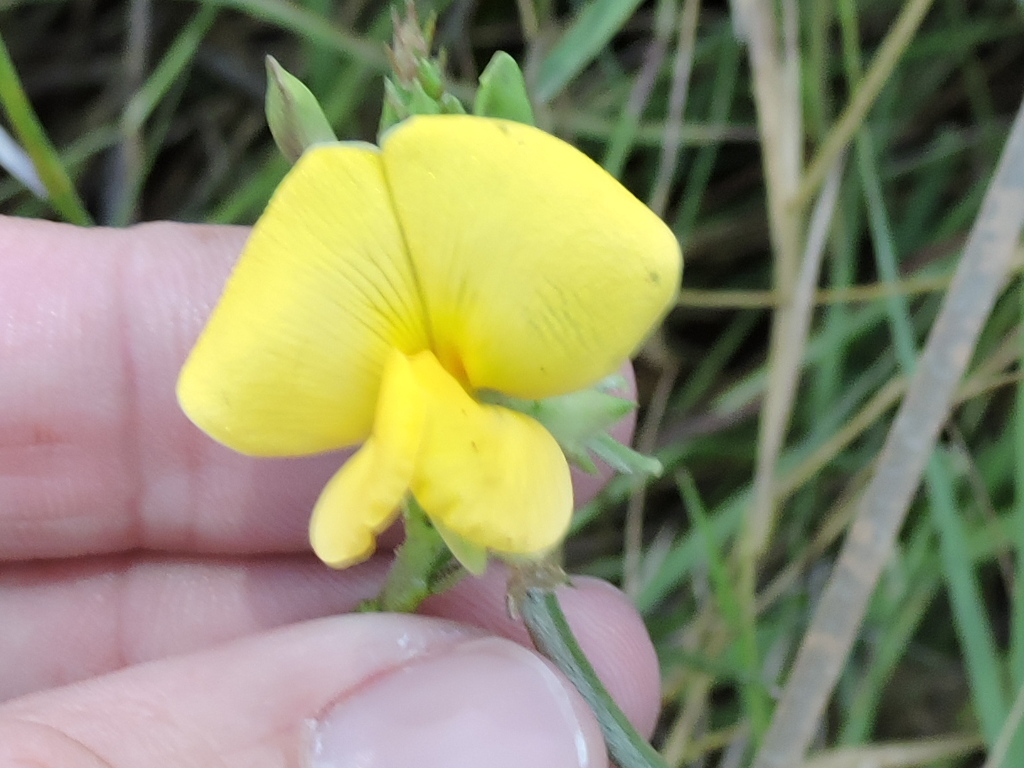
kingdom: Plantae
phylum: Tracheophyta
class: Magnoliopsida
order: Fabales
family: Fabaceae
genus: Vigna
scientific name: Vigna luteola
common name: Hairypod cowpea
